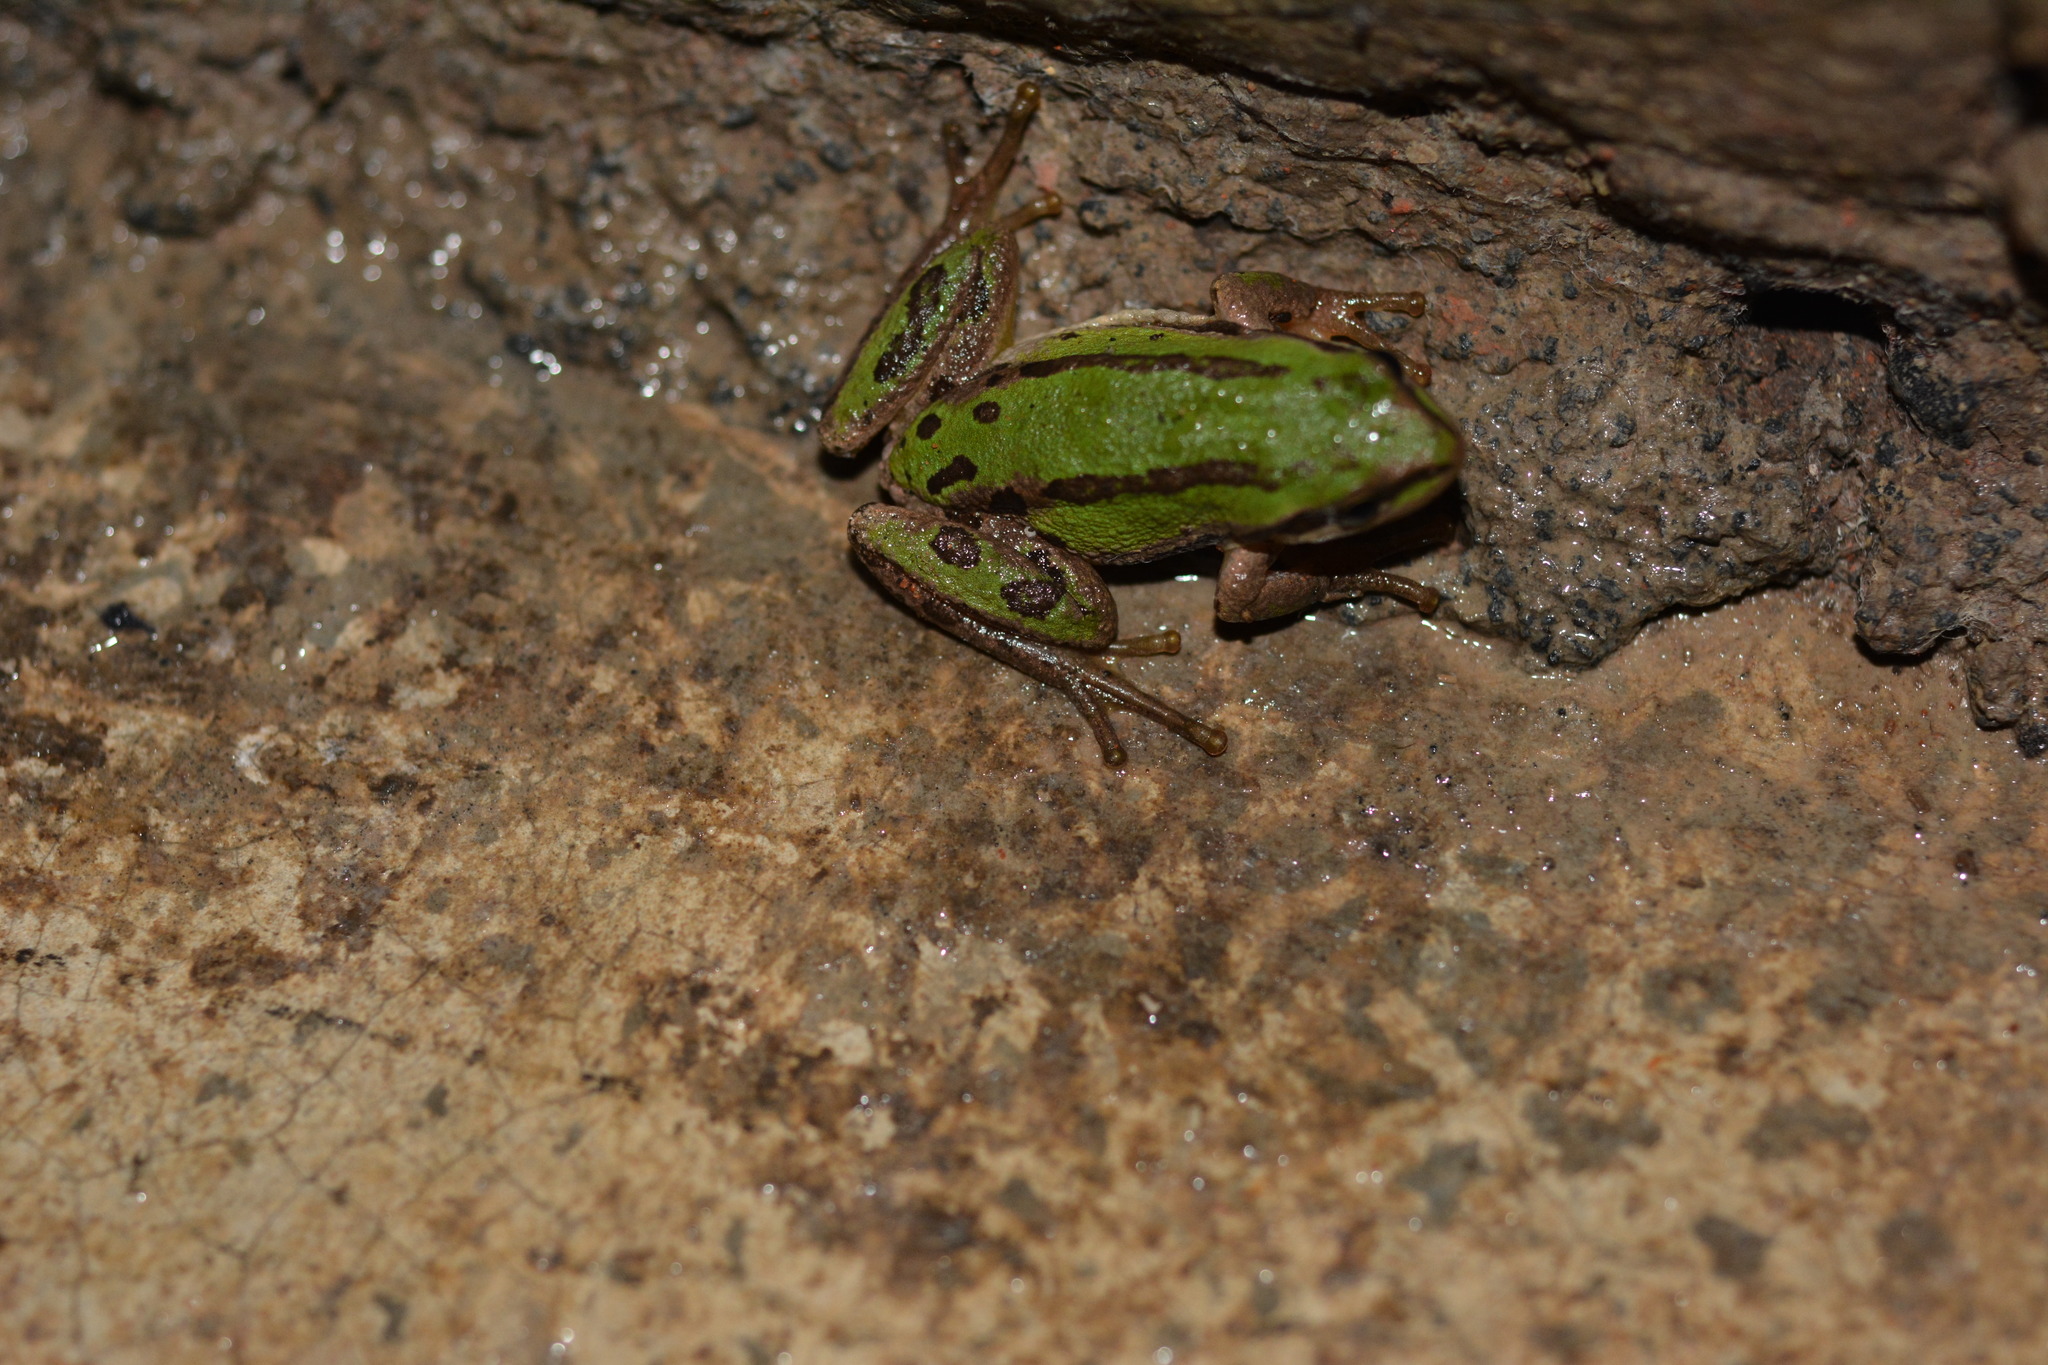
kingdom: Animalia
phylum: Chordata
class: Amphibia
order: Anura
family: Hylidae
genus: Dryophytes
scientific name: Dryophytes eximius
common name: Mountain treefrog
